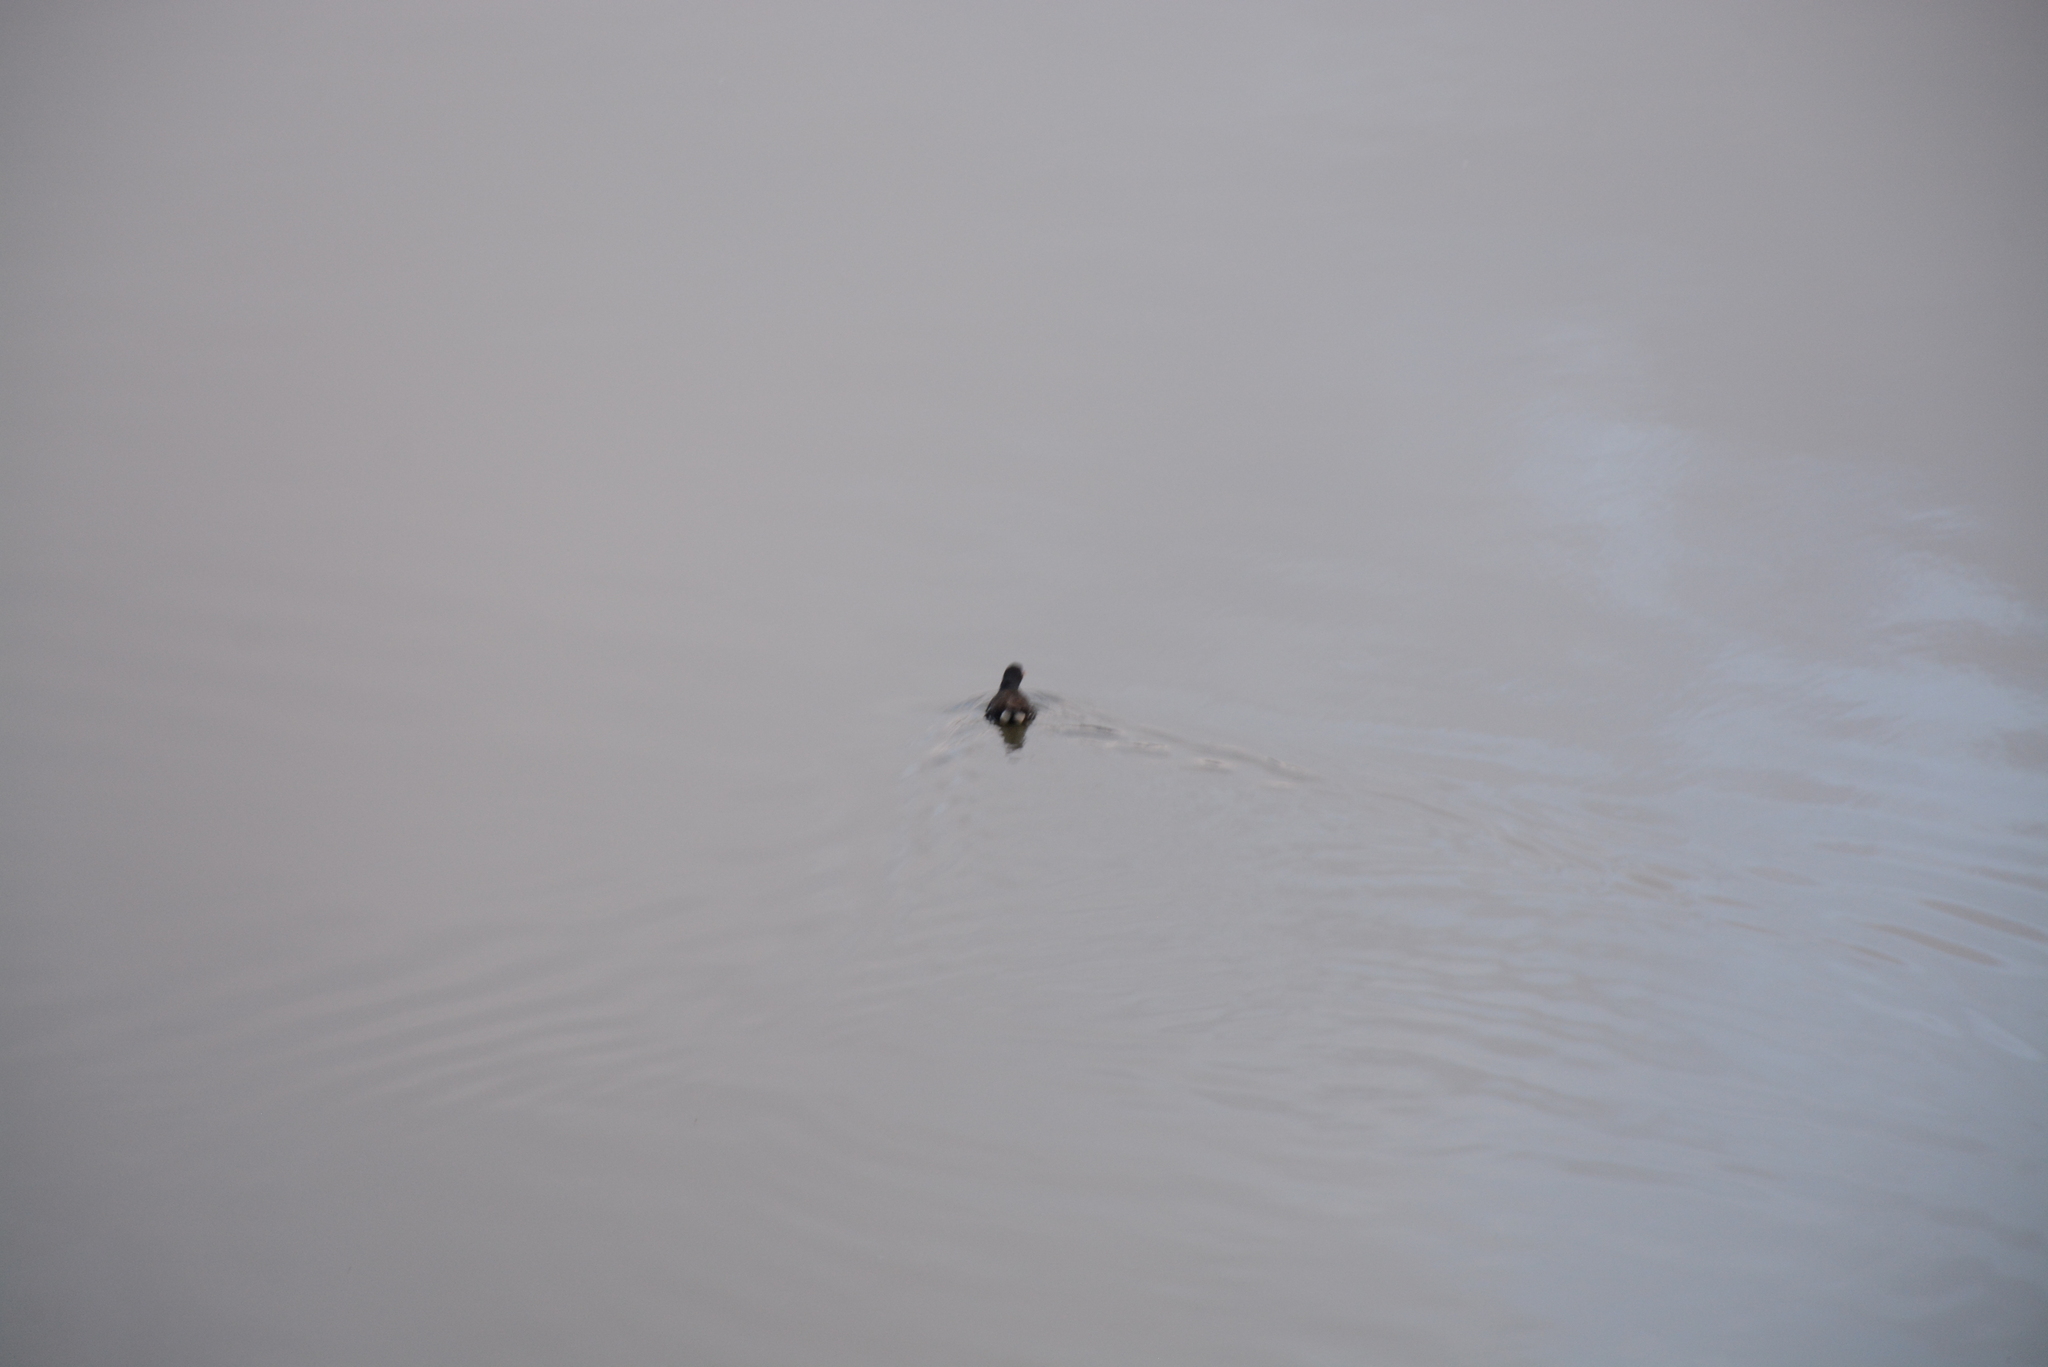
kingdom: Animalia
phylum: Chordata
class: Aves
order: Gruiformes
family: Rallidae
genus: Gallinula
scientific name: Gallinula chloropus
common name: Common moorhen
